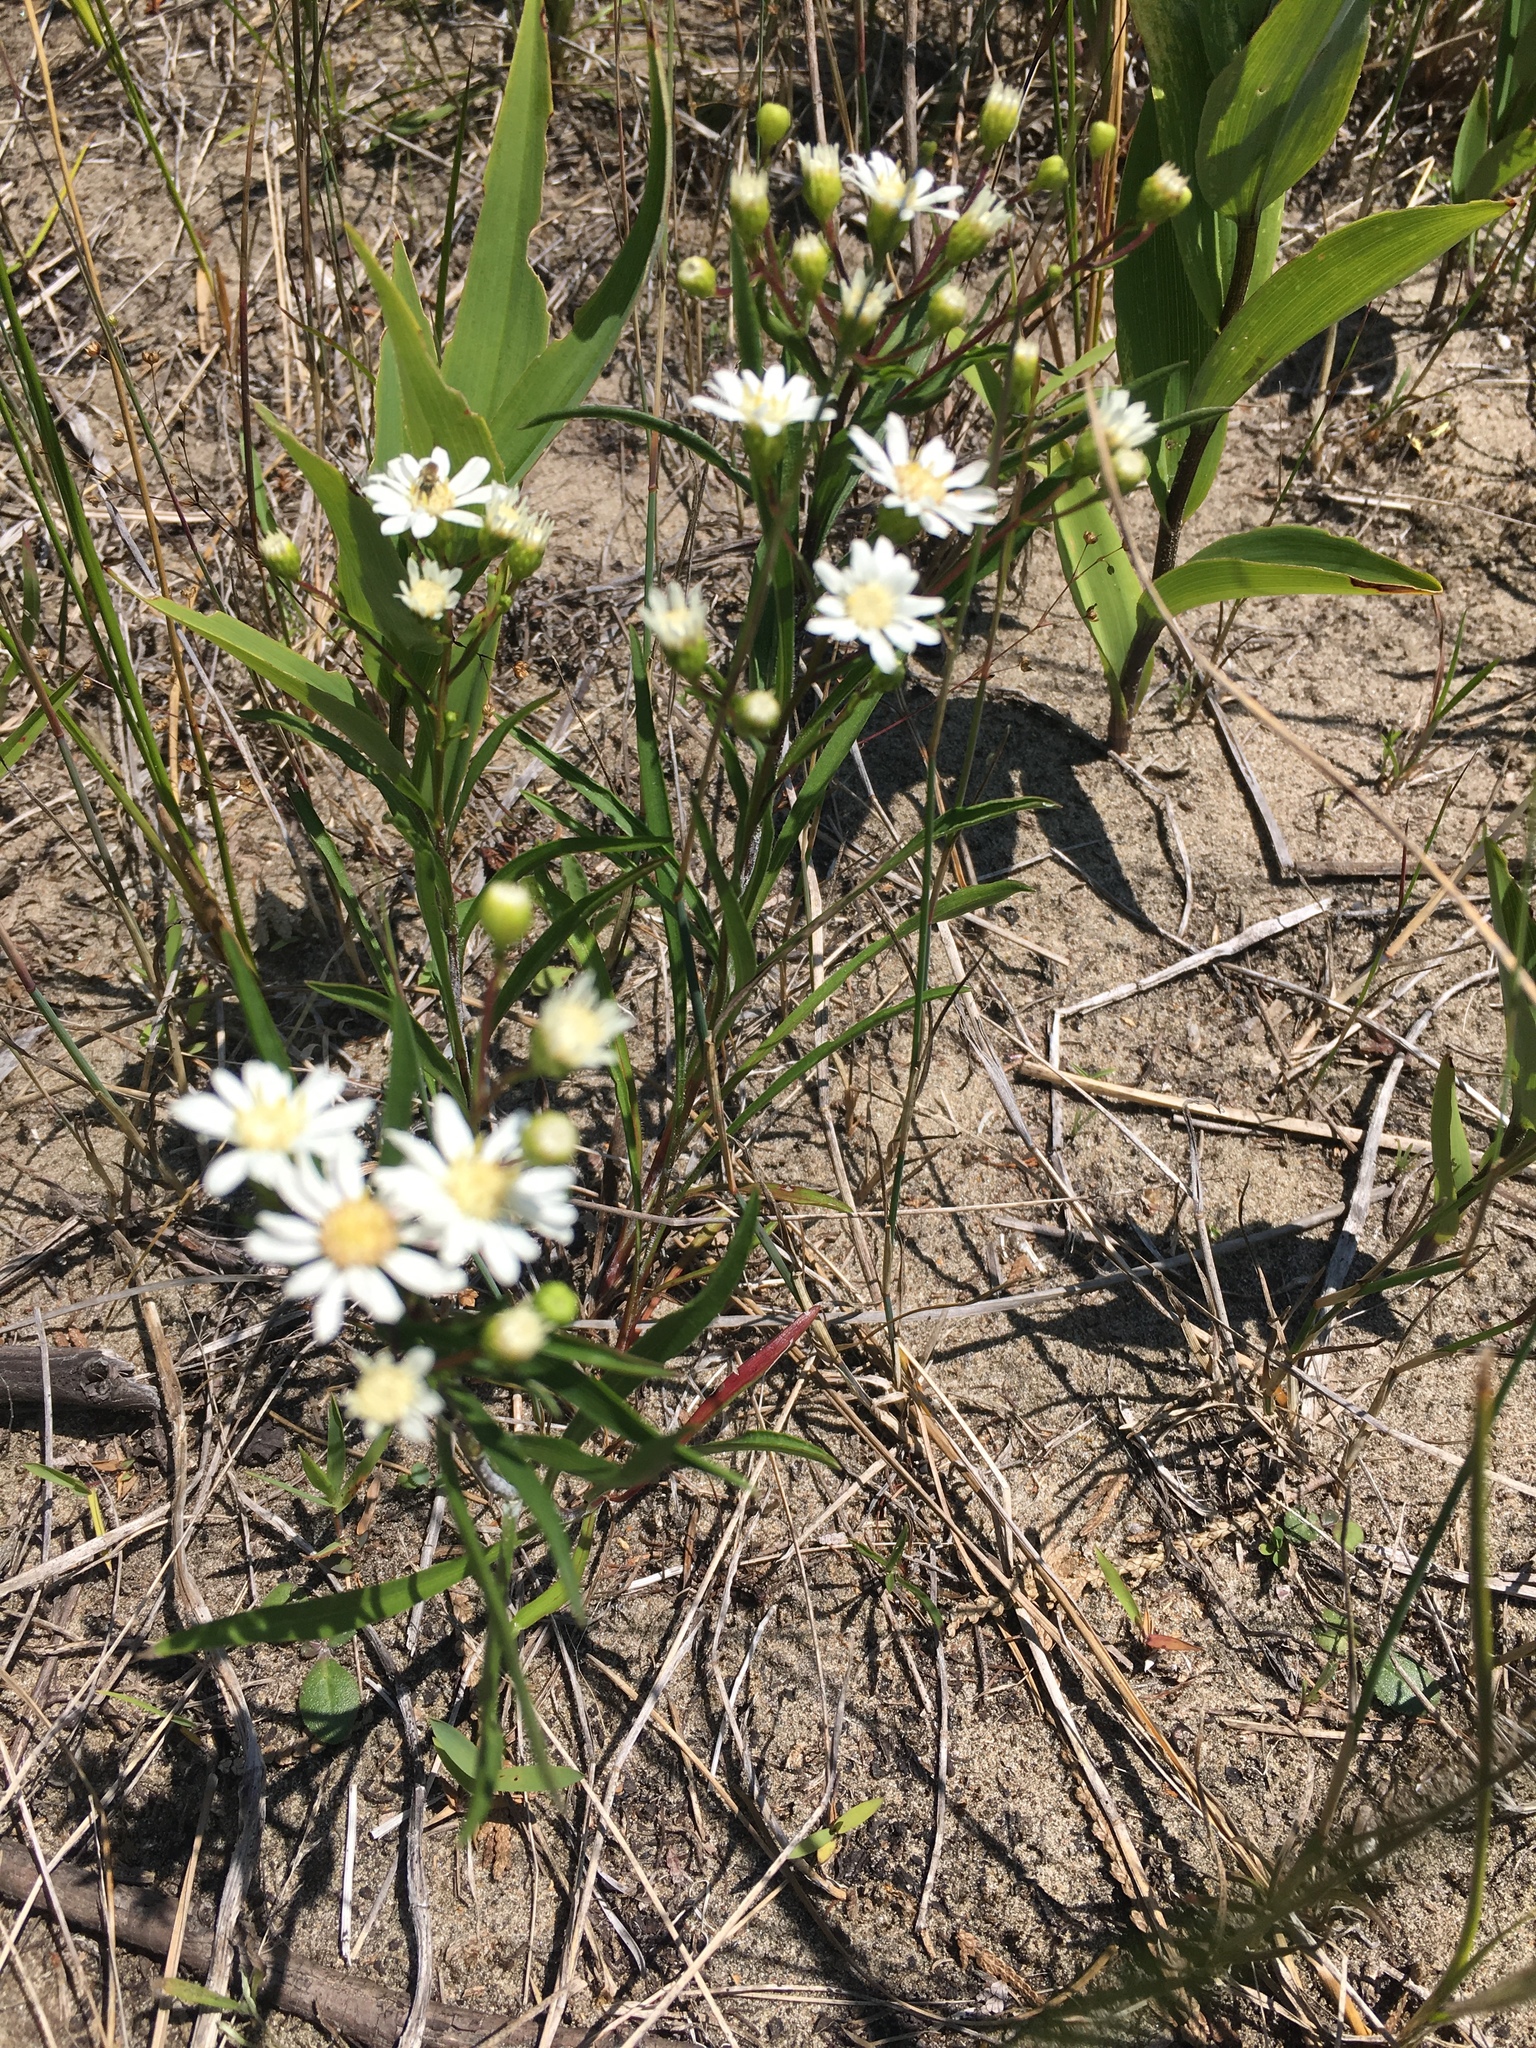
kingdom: Plantae
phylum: Tracheophyta
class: Magnoliopsida
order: Asterales
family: Asteraceae
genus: Solidago
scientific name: Solidago ptarmicoides
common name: White flat-top goldenrod
